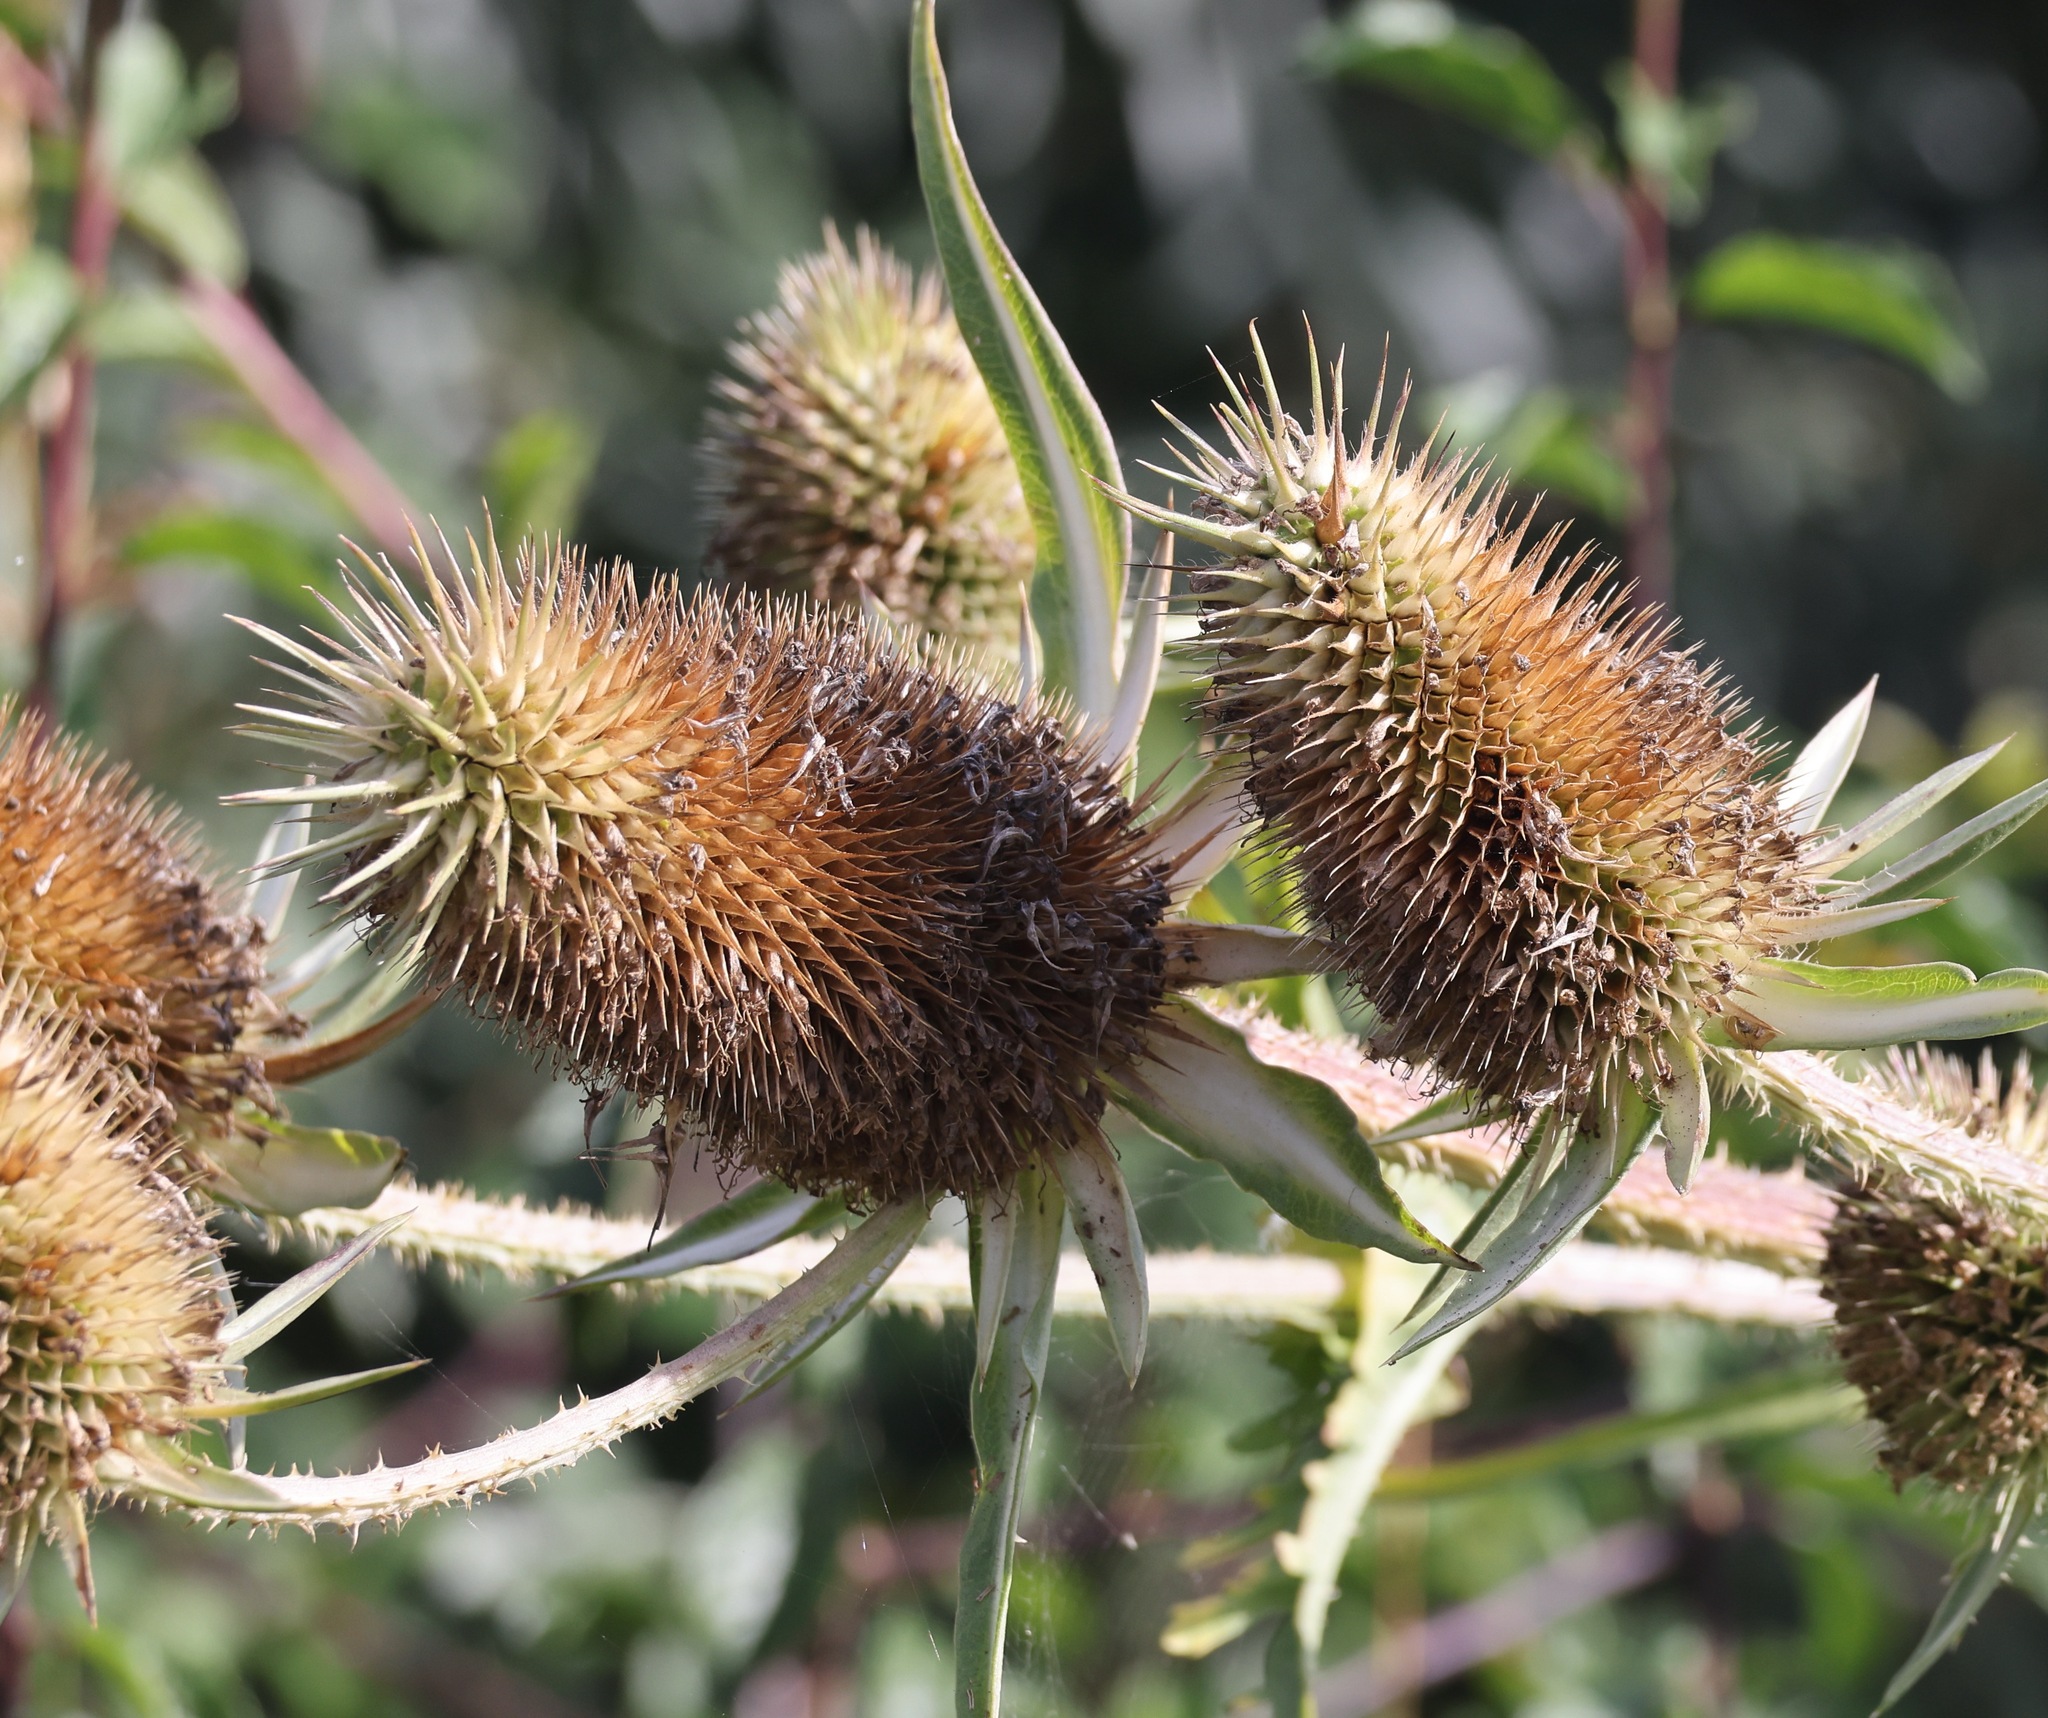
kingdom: Plantae
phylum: Tracheophyta
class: Magnoliopsida
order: Dipsacales
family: Caprifoliaceae
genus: Dipsacus
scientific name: Dipsacus laciniatus
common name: Cut-leaved teasel
